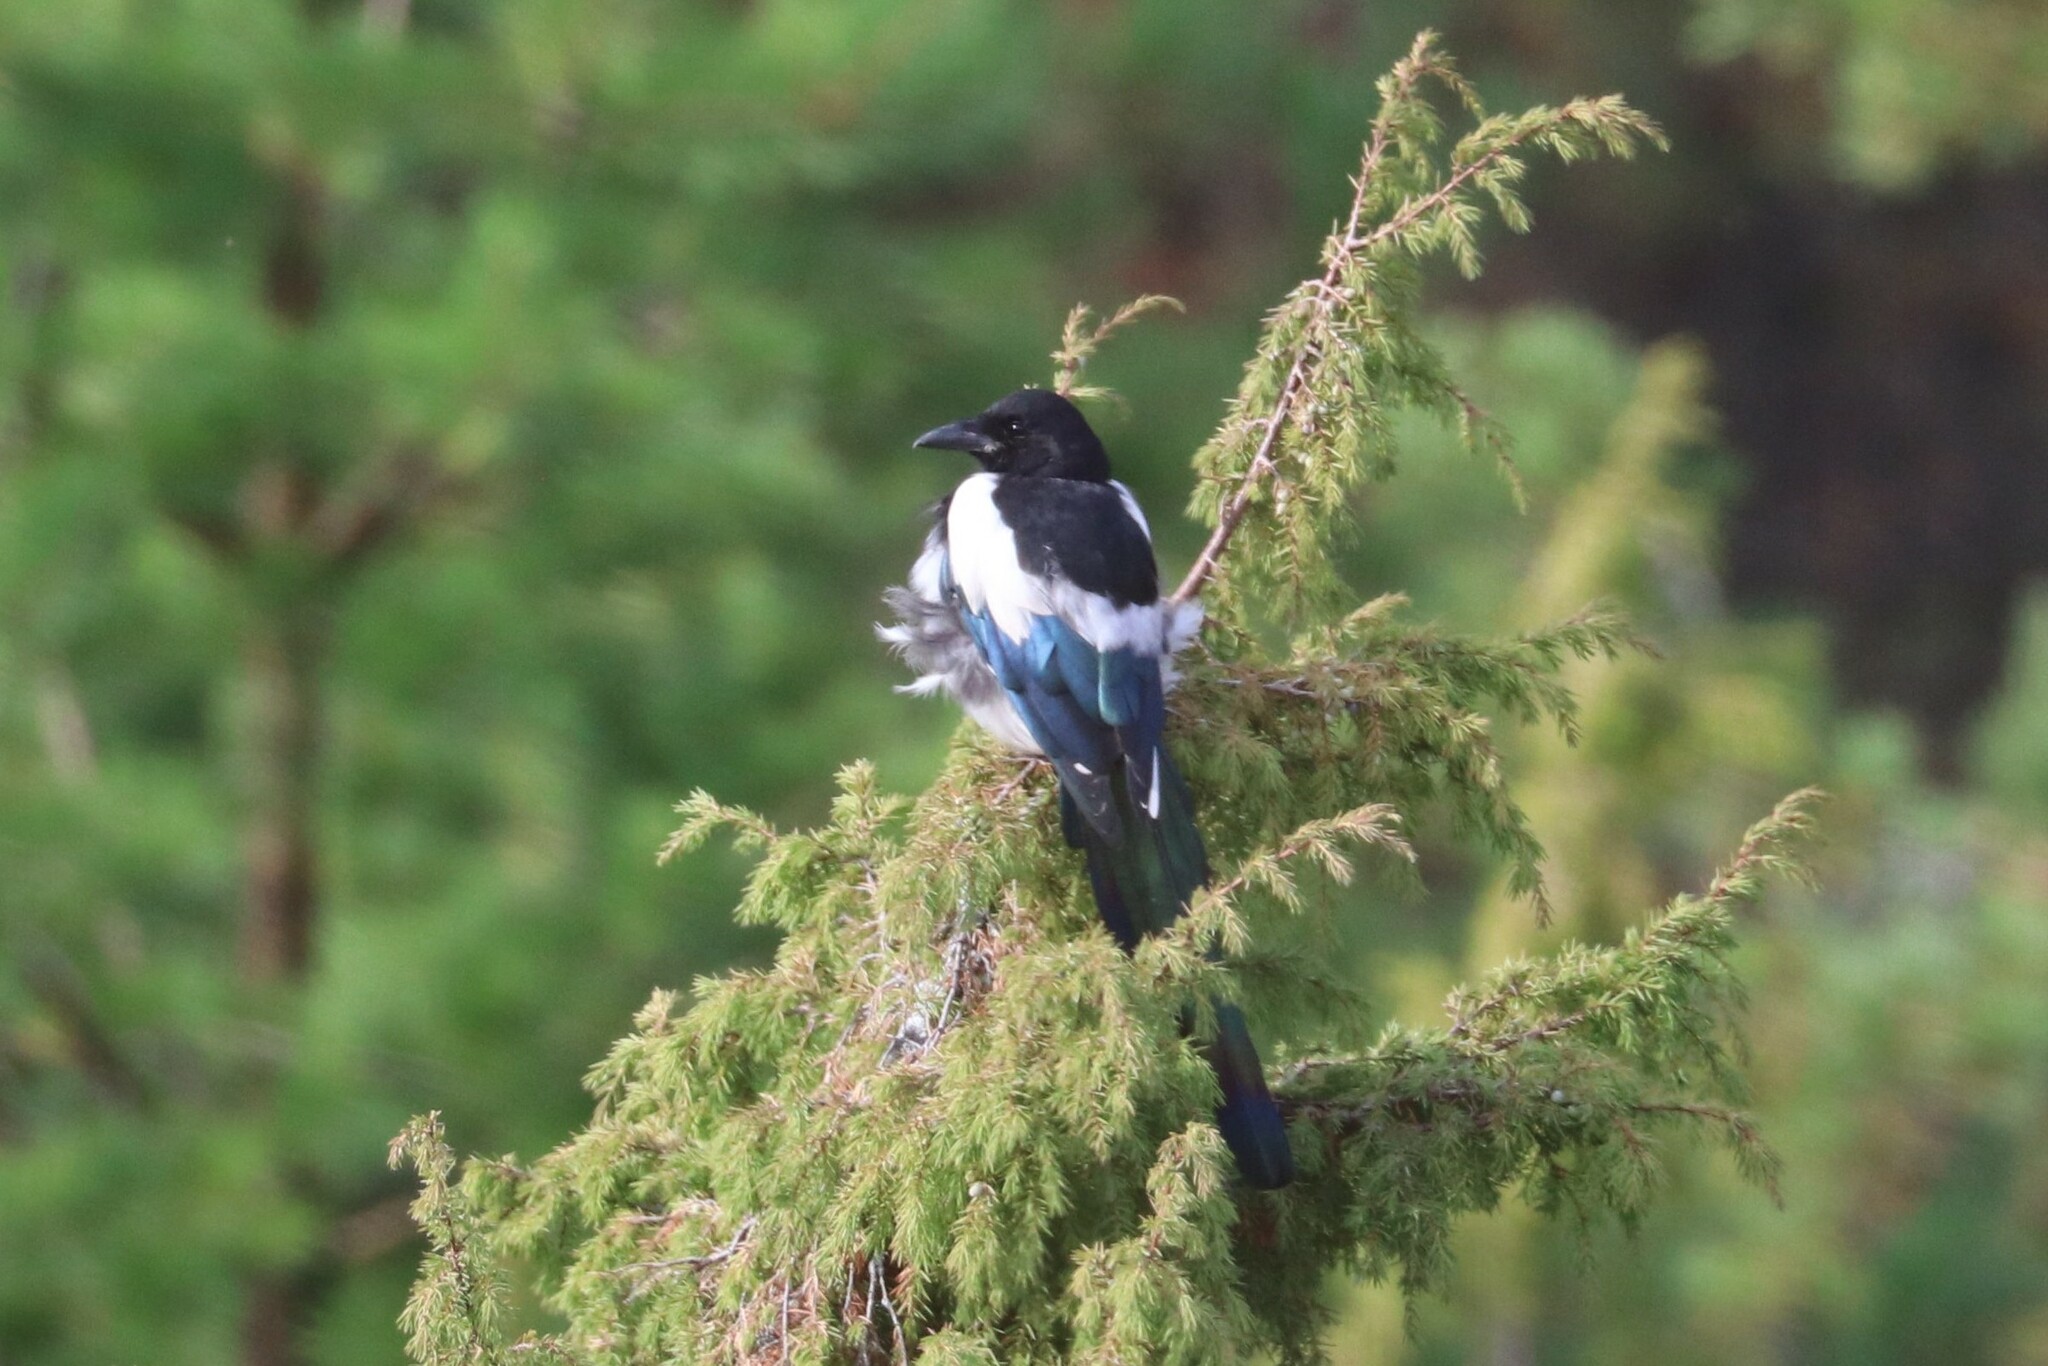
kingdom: Animalia
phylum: Chordata
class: Aves
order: Passeriformes
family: Corvidae
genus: Pica
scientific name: Pica pica
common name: Eurasian magpie
